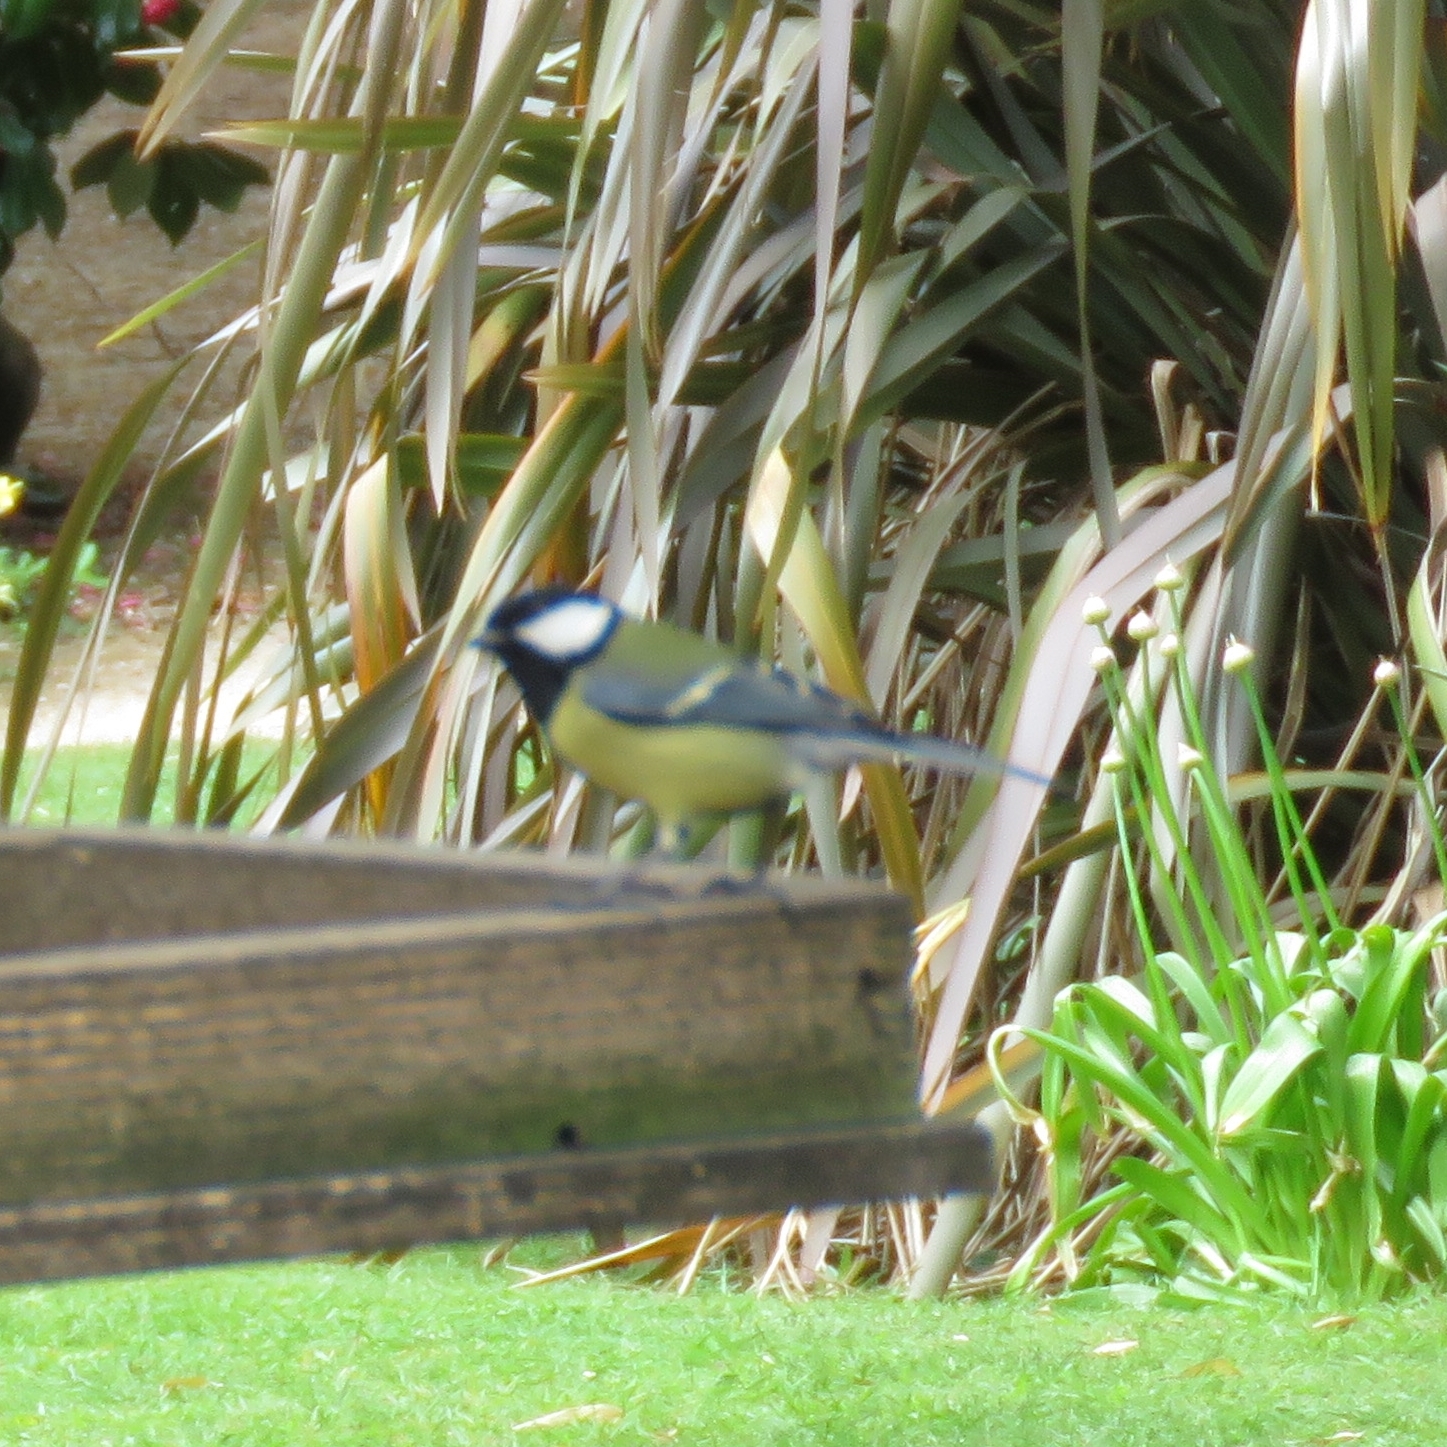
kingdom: Animalia
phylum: Chordata
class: Aves
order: Passeriformes
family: Paridae
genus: Parus
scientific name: Parus major
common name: Great tit
